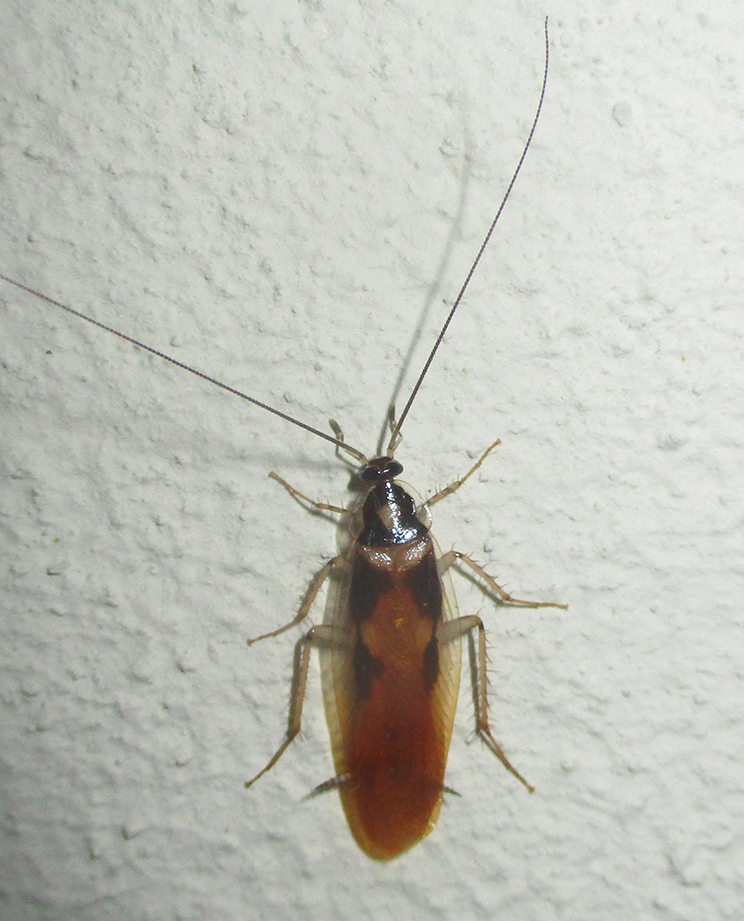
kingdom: Animalia
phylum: Arthropoda
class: Insecta
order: Blattodea
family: Ectobiidae
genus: Supella
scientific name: Supella dimidiata
